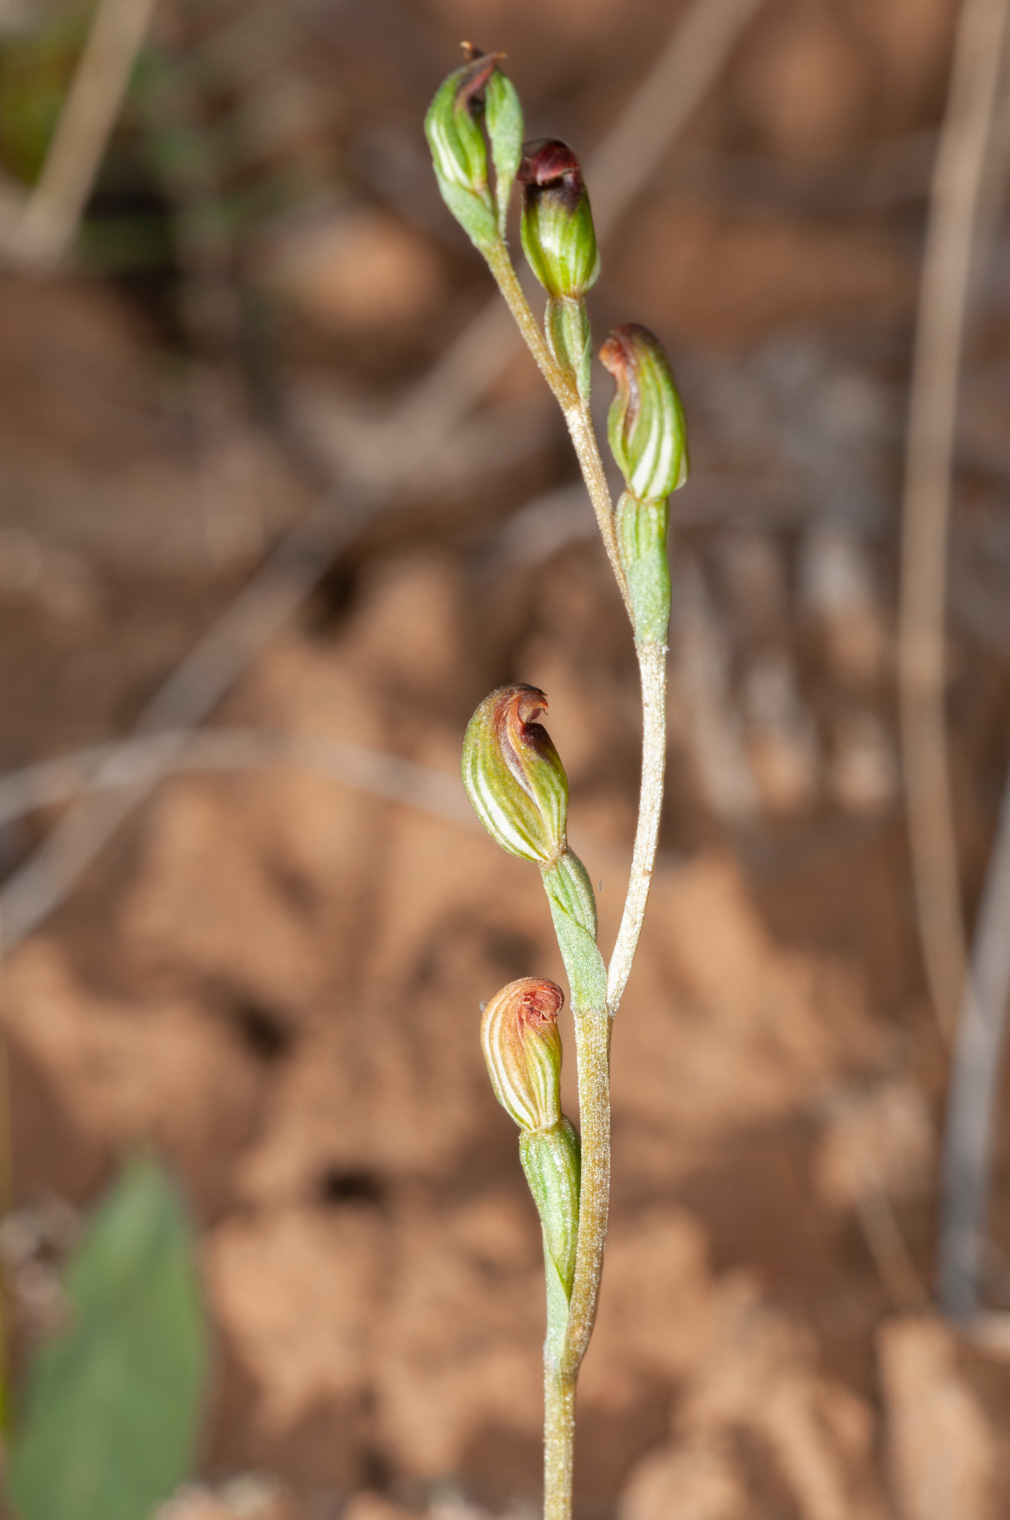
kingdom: Plantae
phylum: Tracheophyta
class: Liliopsida
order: Asparagales
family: Orchidaceae
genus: Pterostylis
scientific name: Pterostylis rubescens
